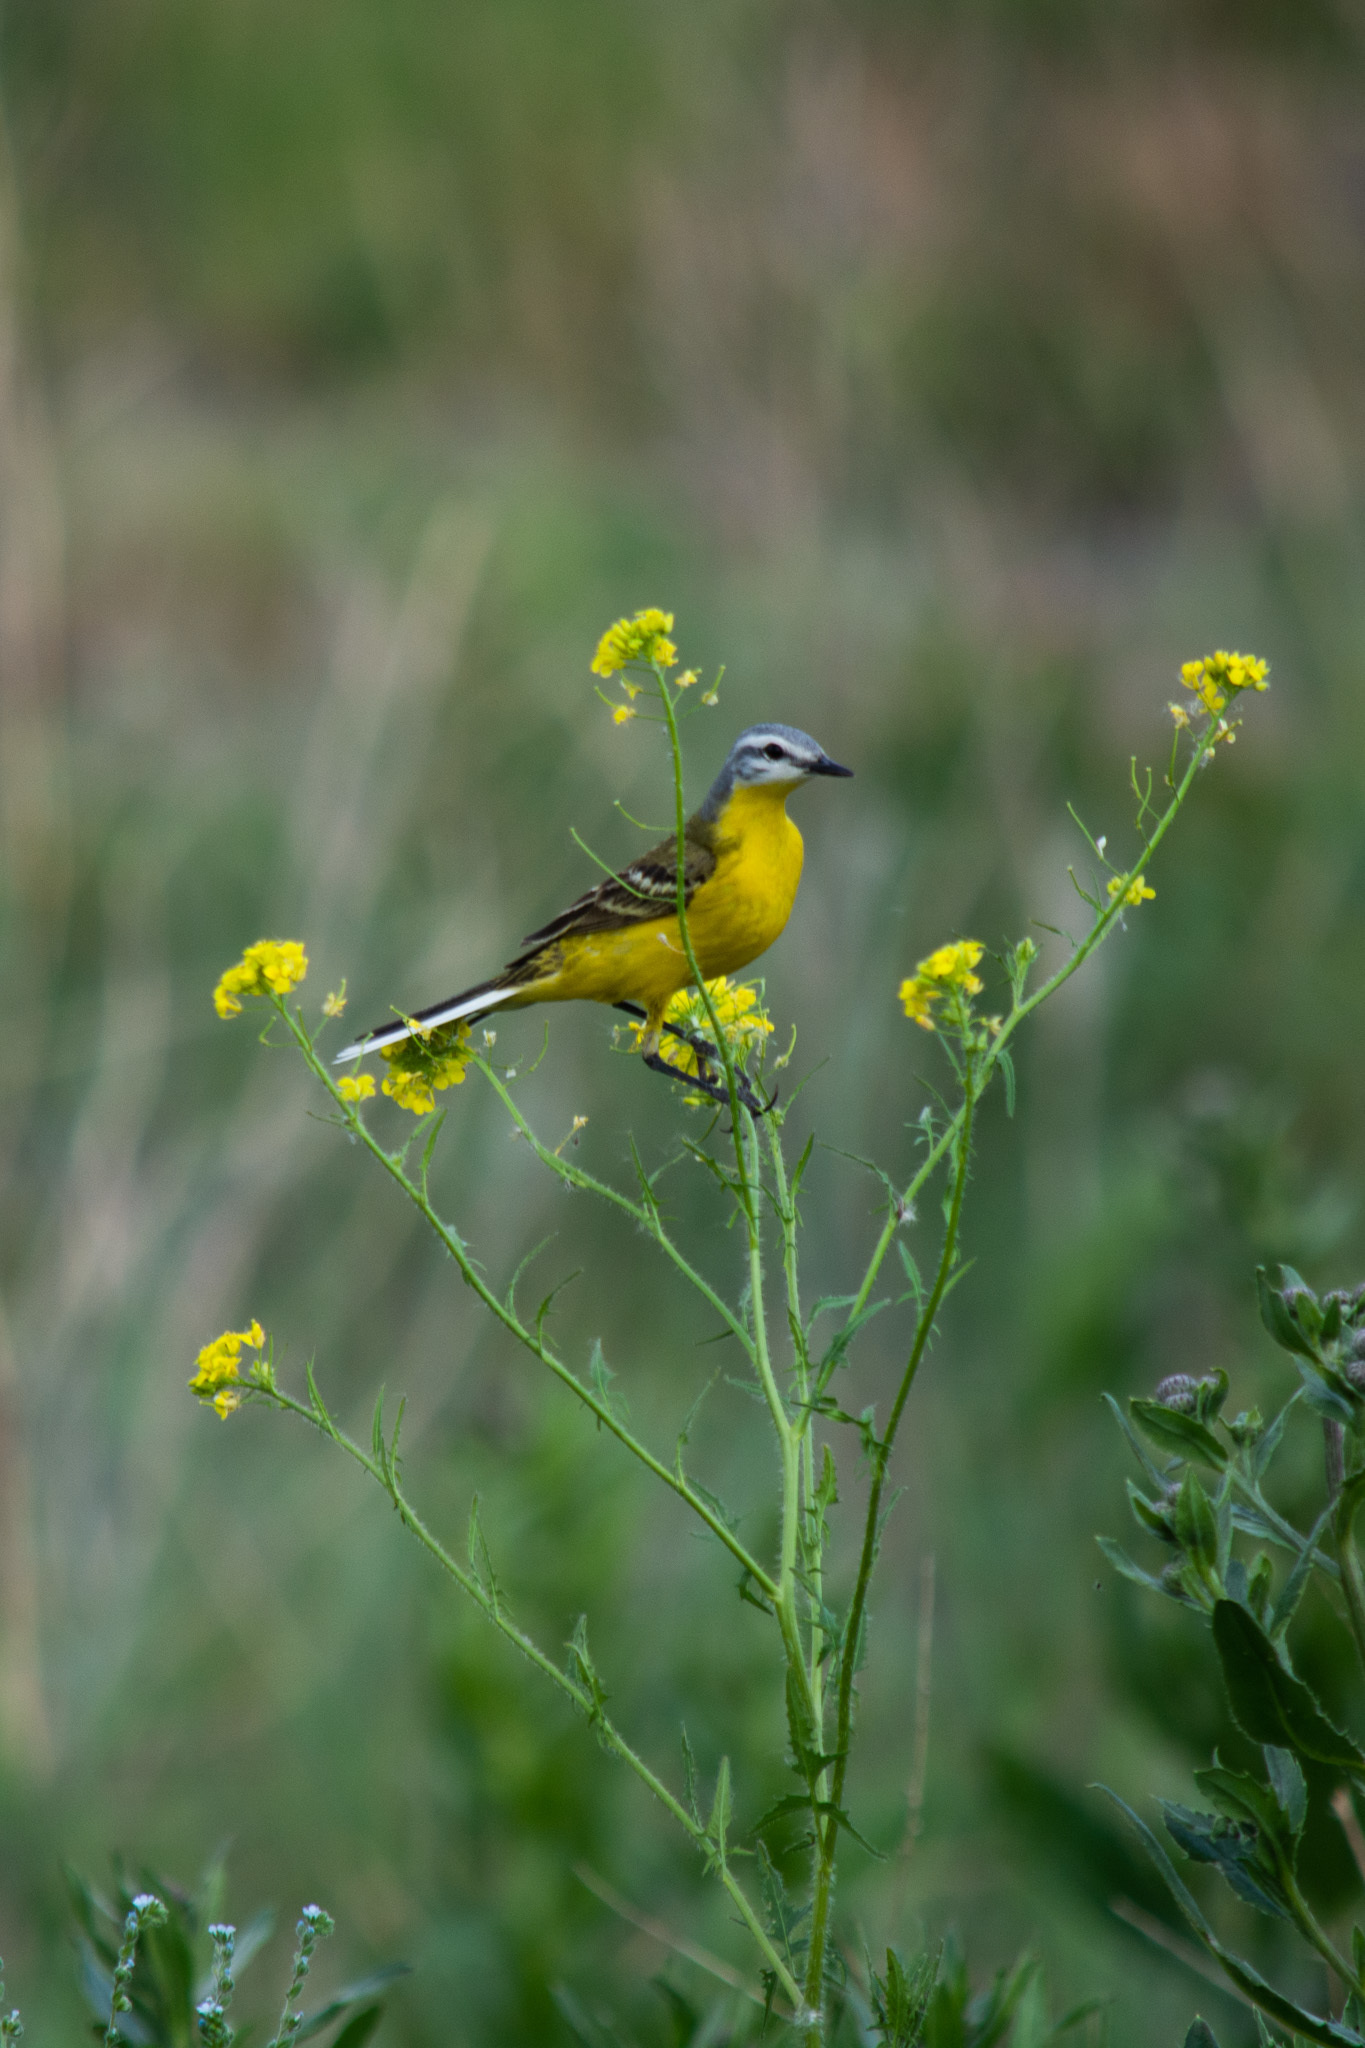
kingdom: Animalia
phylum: Chordata
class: Aves
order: Passeriformes
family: Motacillidae
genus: Motacilla
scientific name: Motacilla flava
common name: Western yellow wagtail
